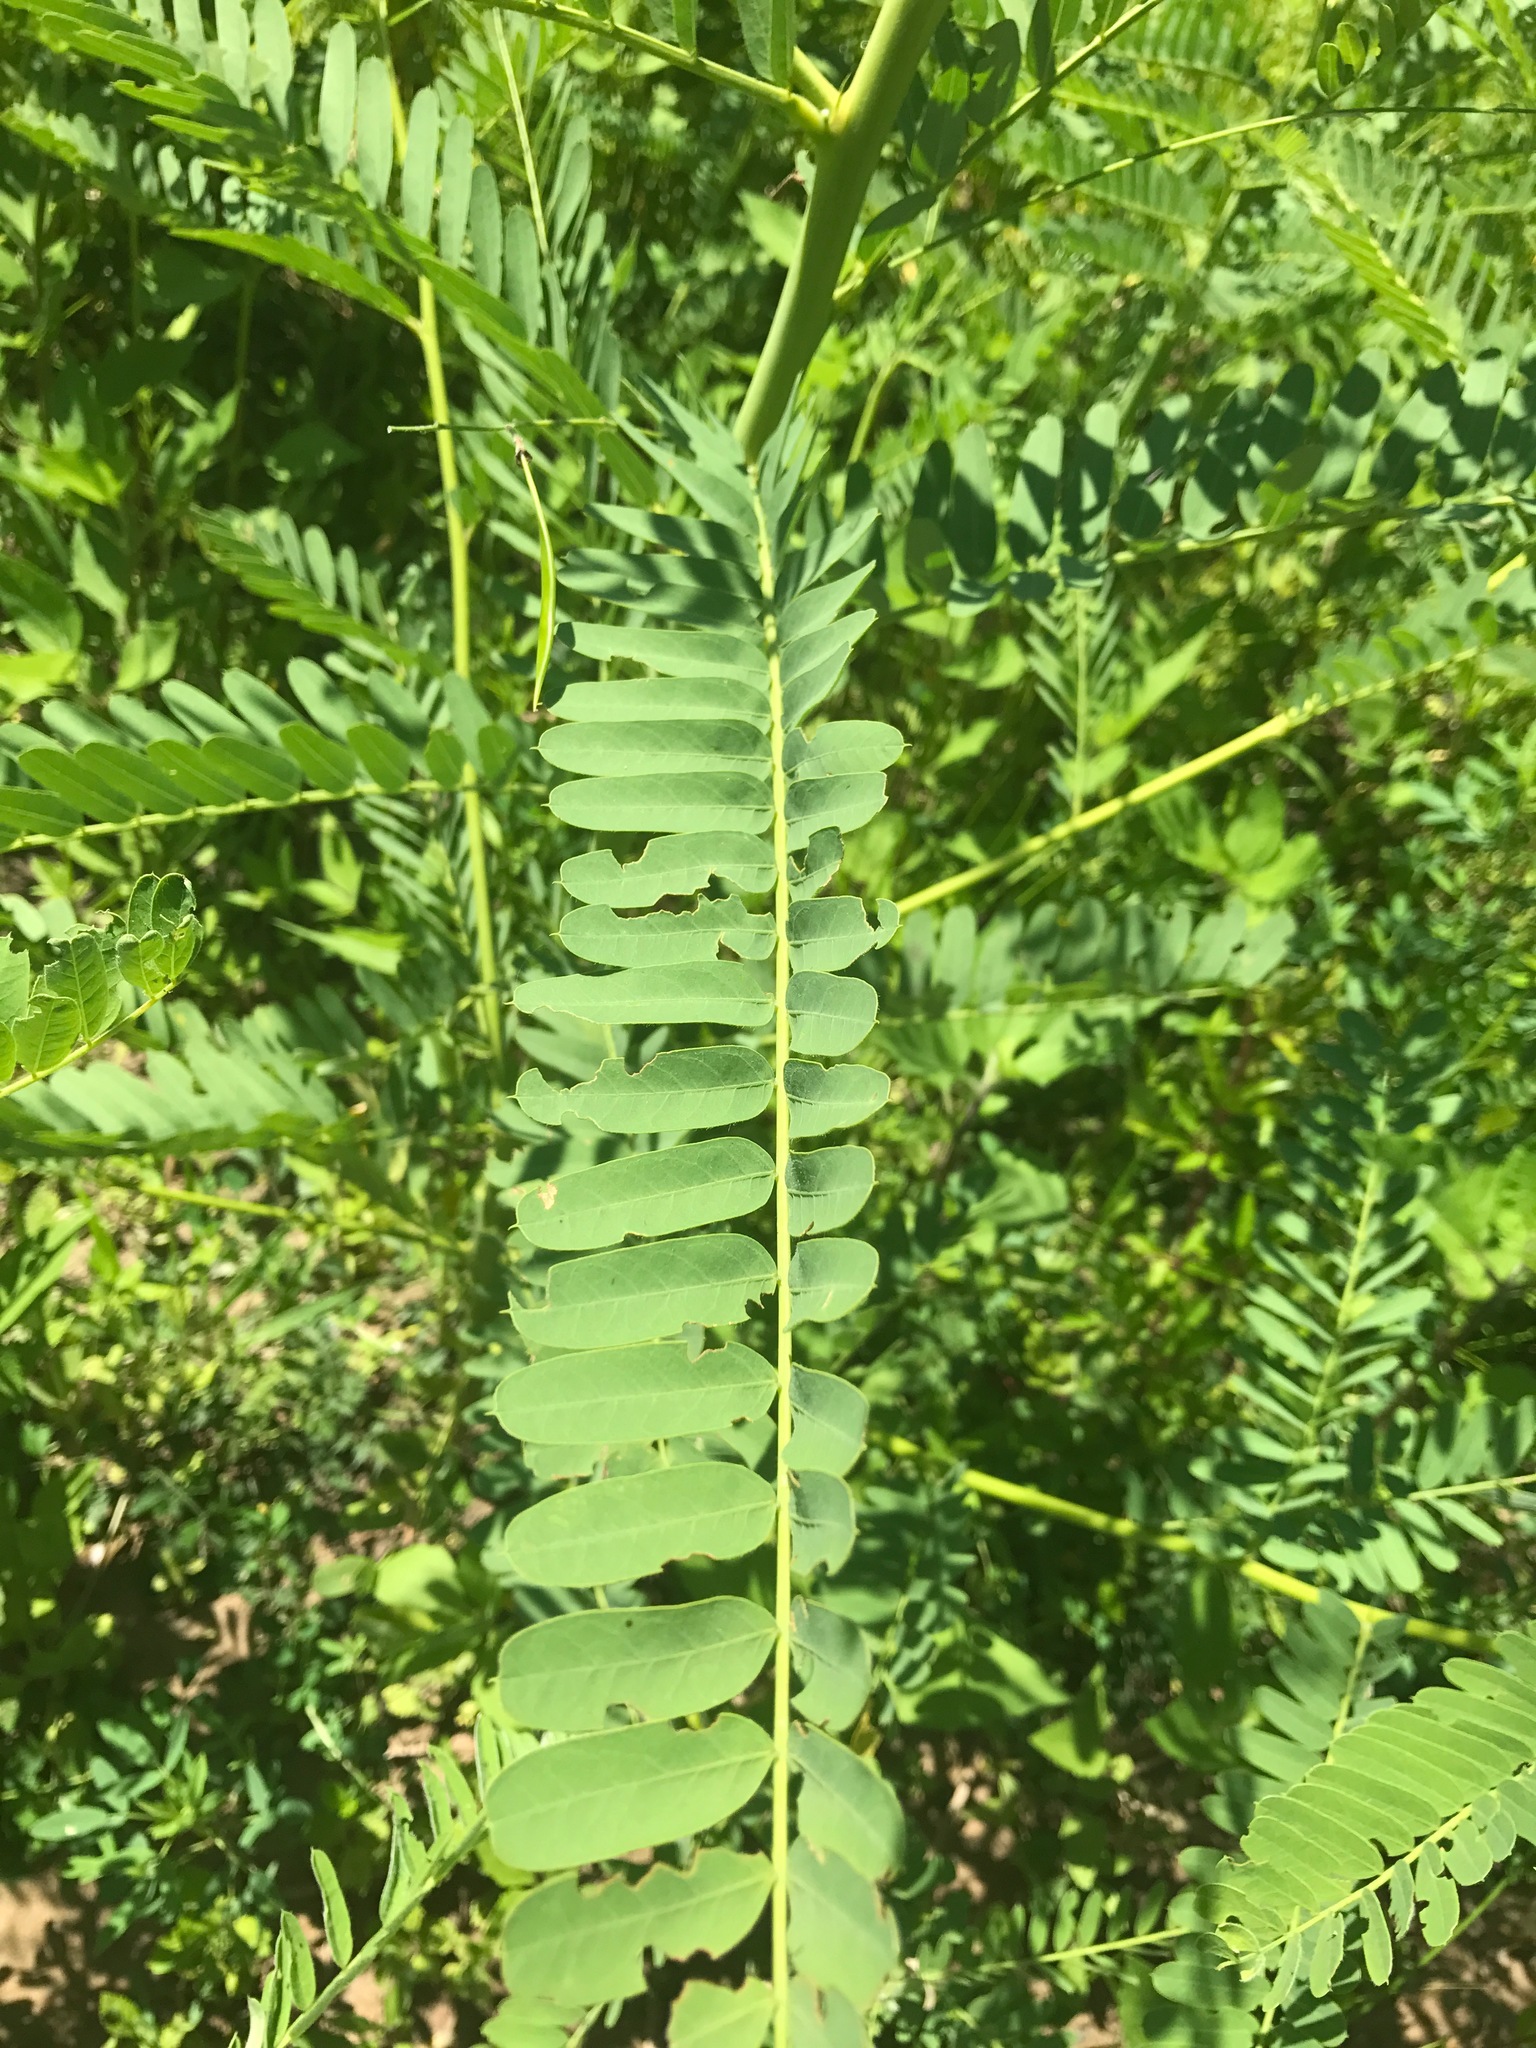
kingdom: Plantae
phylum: Tracheophyta
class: Magnoliopsida
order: Fabales
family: Fabaceae
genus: Sesbania
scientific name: Sesbania herbacea
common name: Bigpod sesbania
